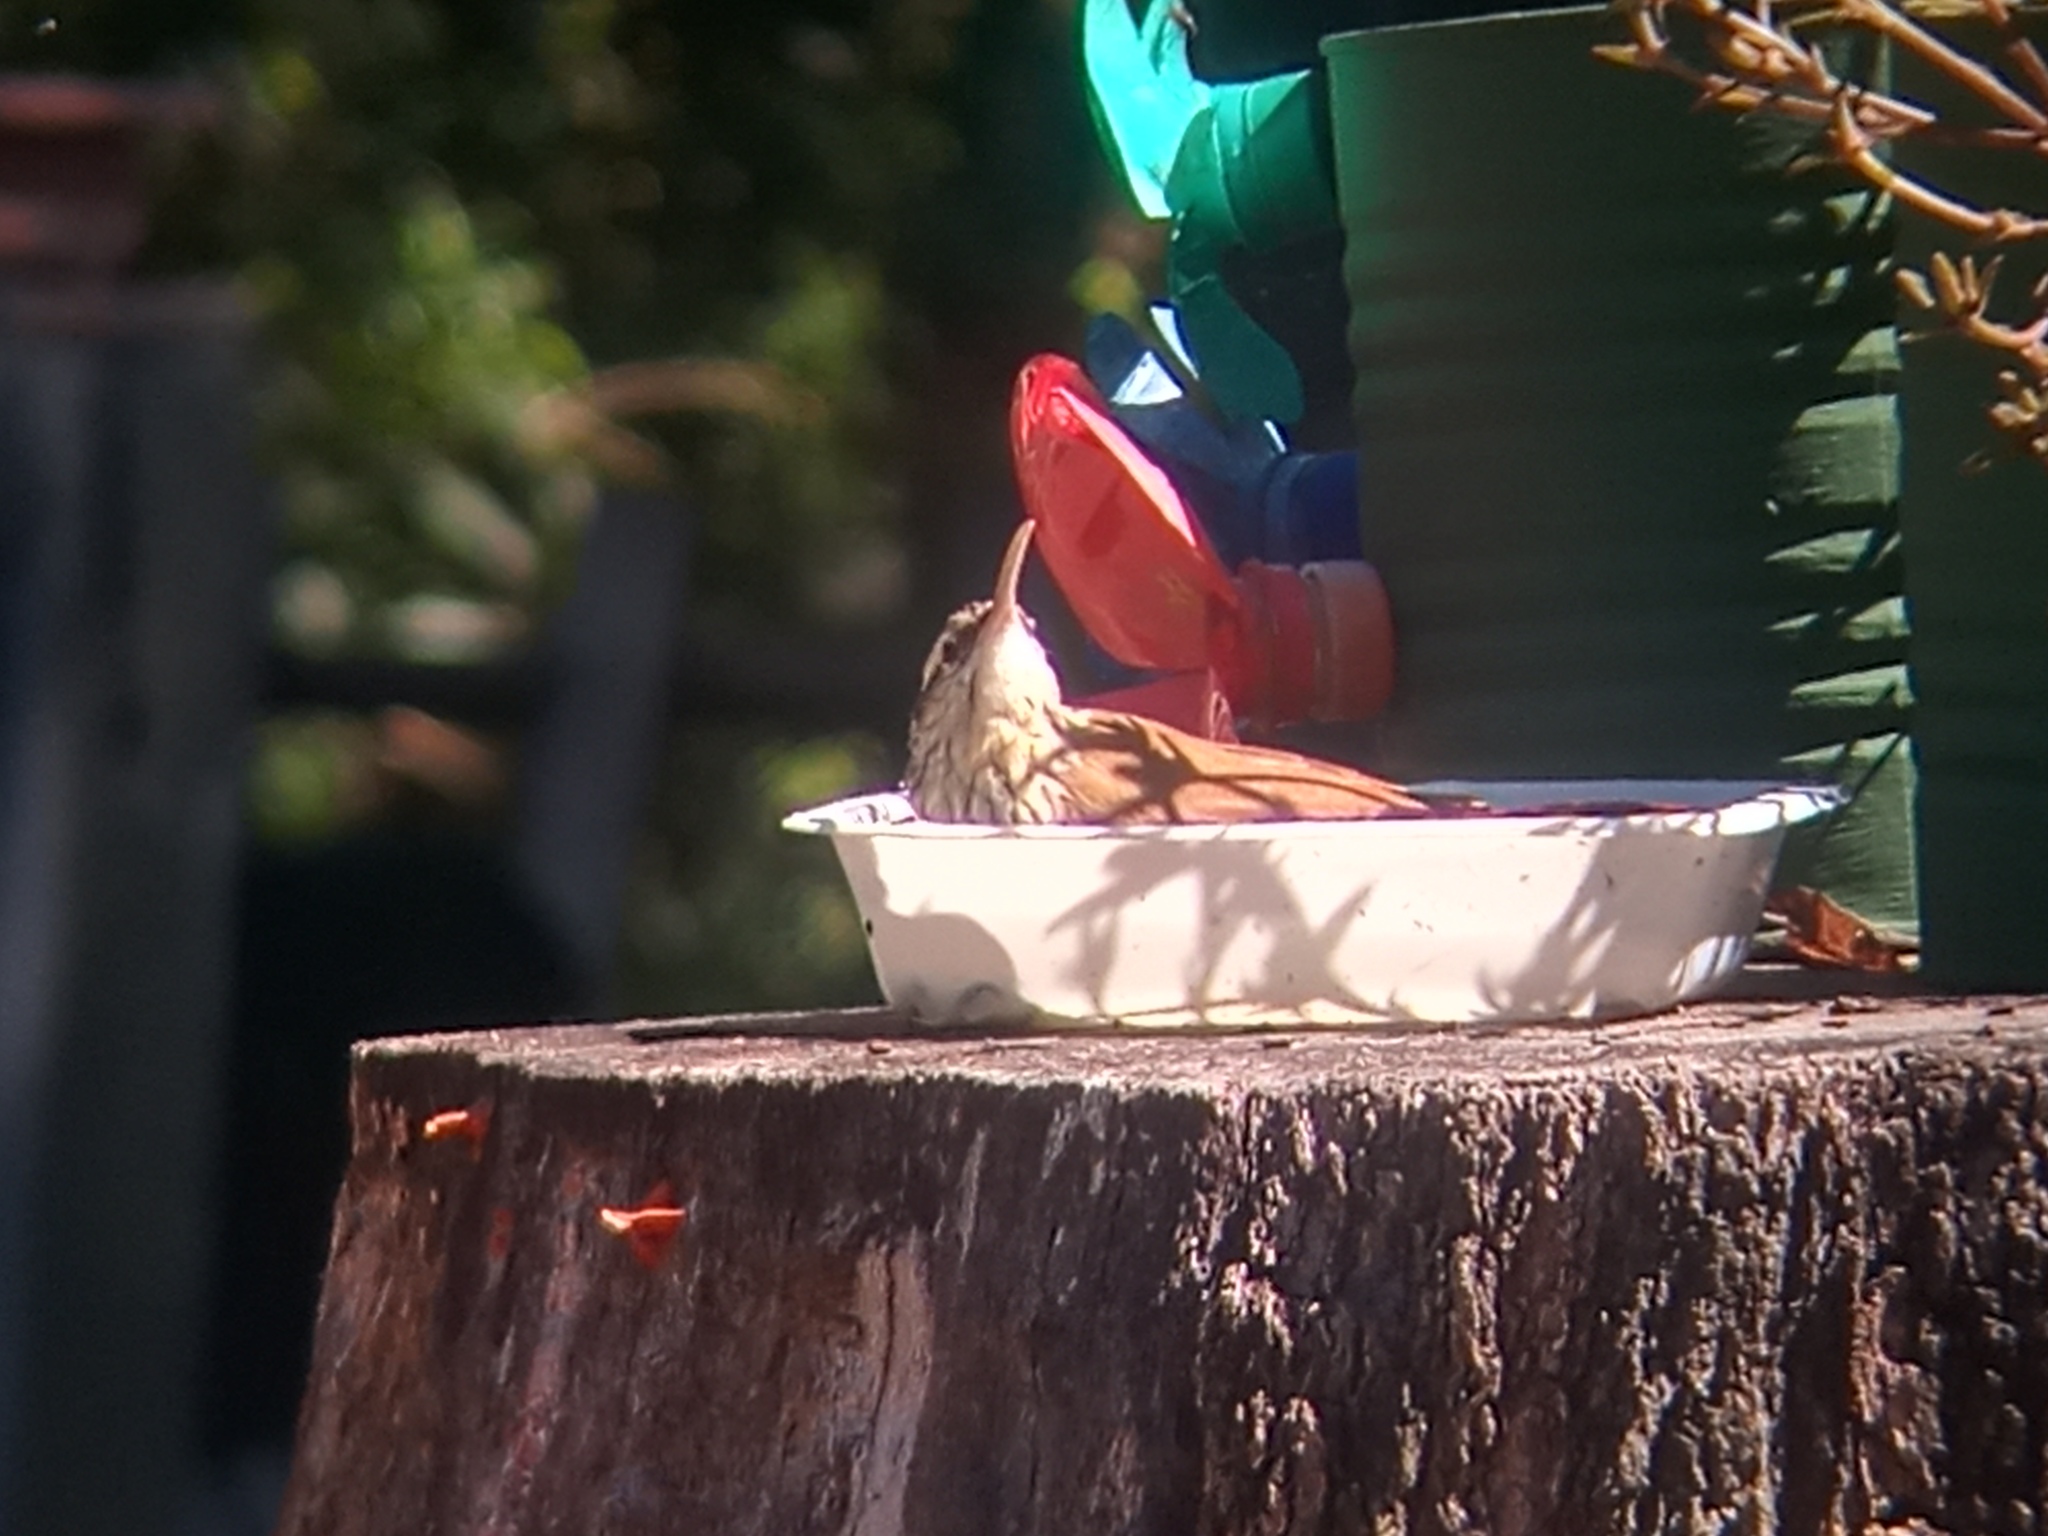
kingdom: Animalia
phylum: Chordata
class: Aves
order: Passeriformes
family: Furnariidae
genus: Lepidocolaptes
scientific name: Lepidocolaptes angustirostris
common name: Narrow-billed woodcreeper
